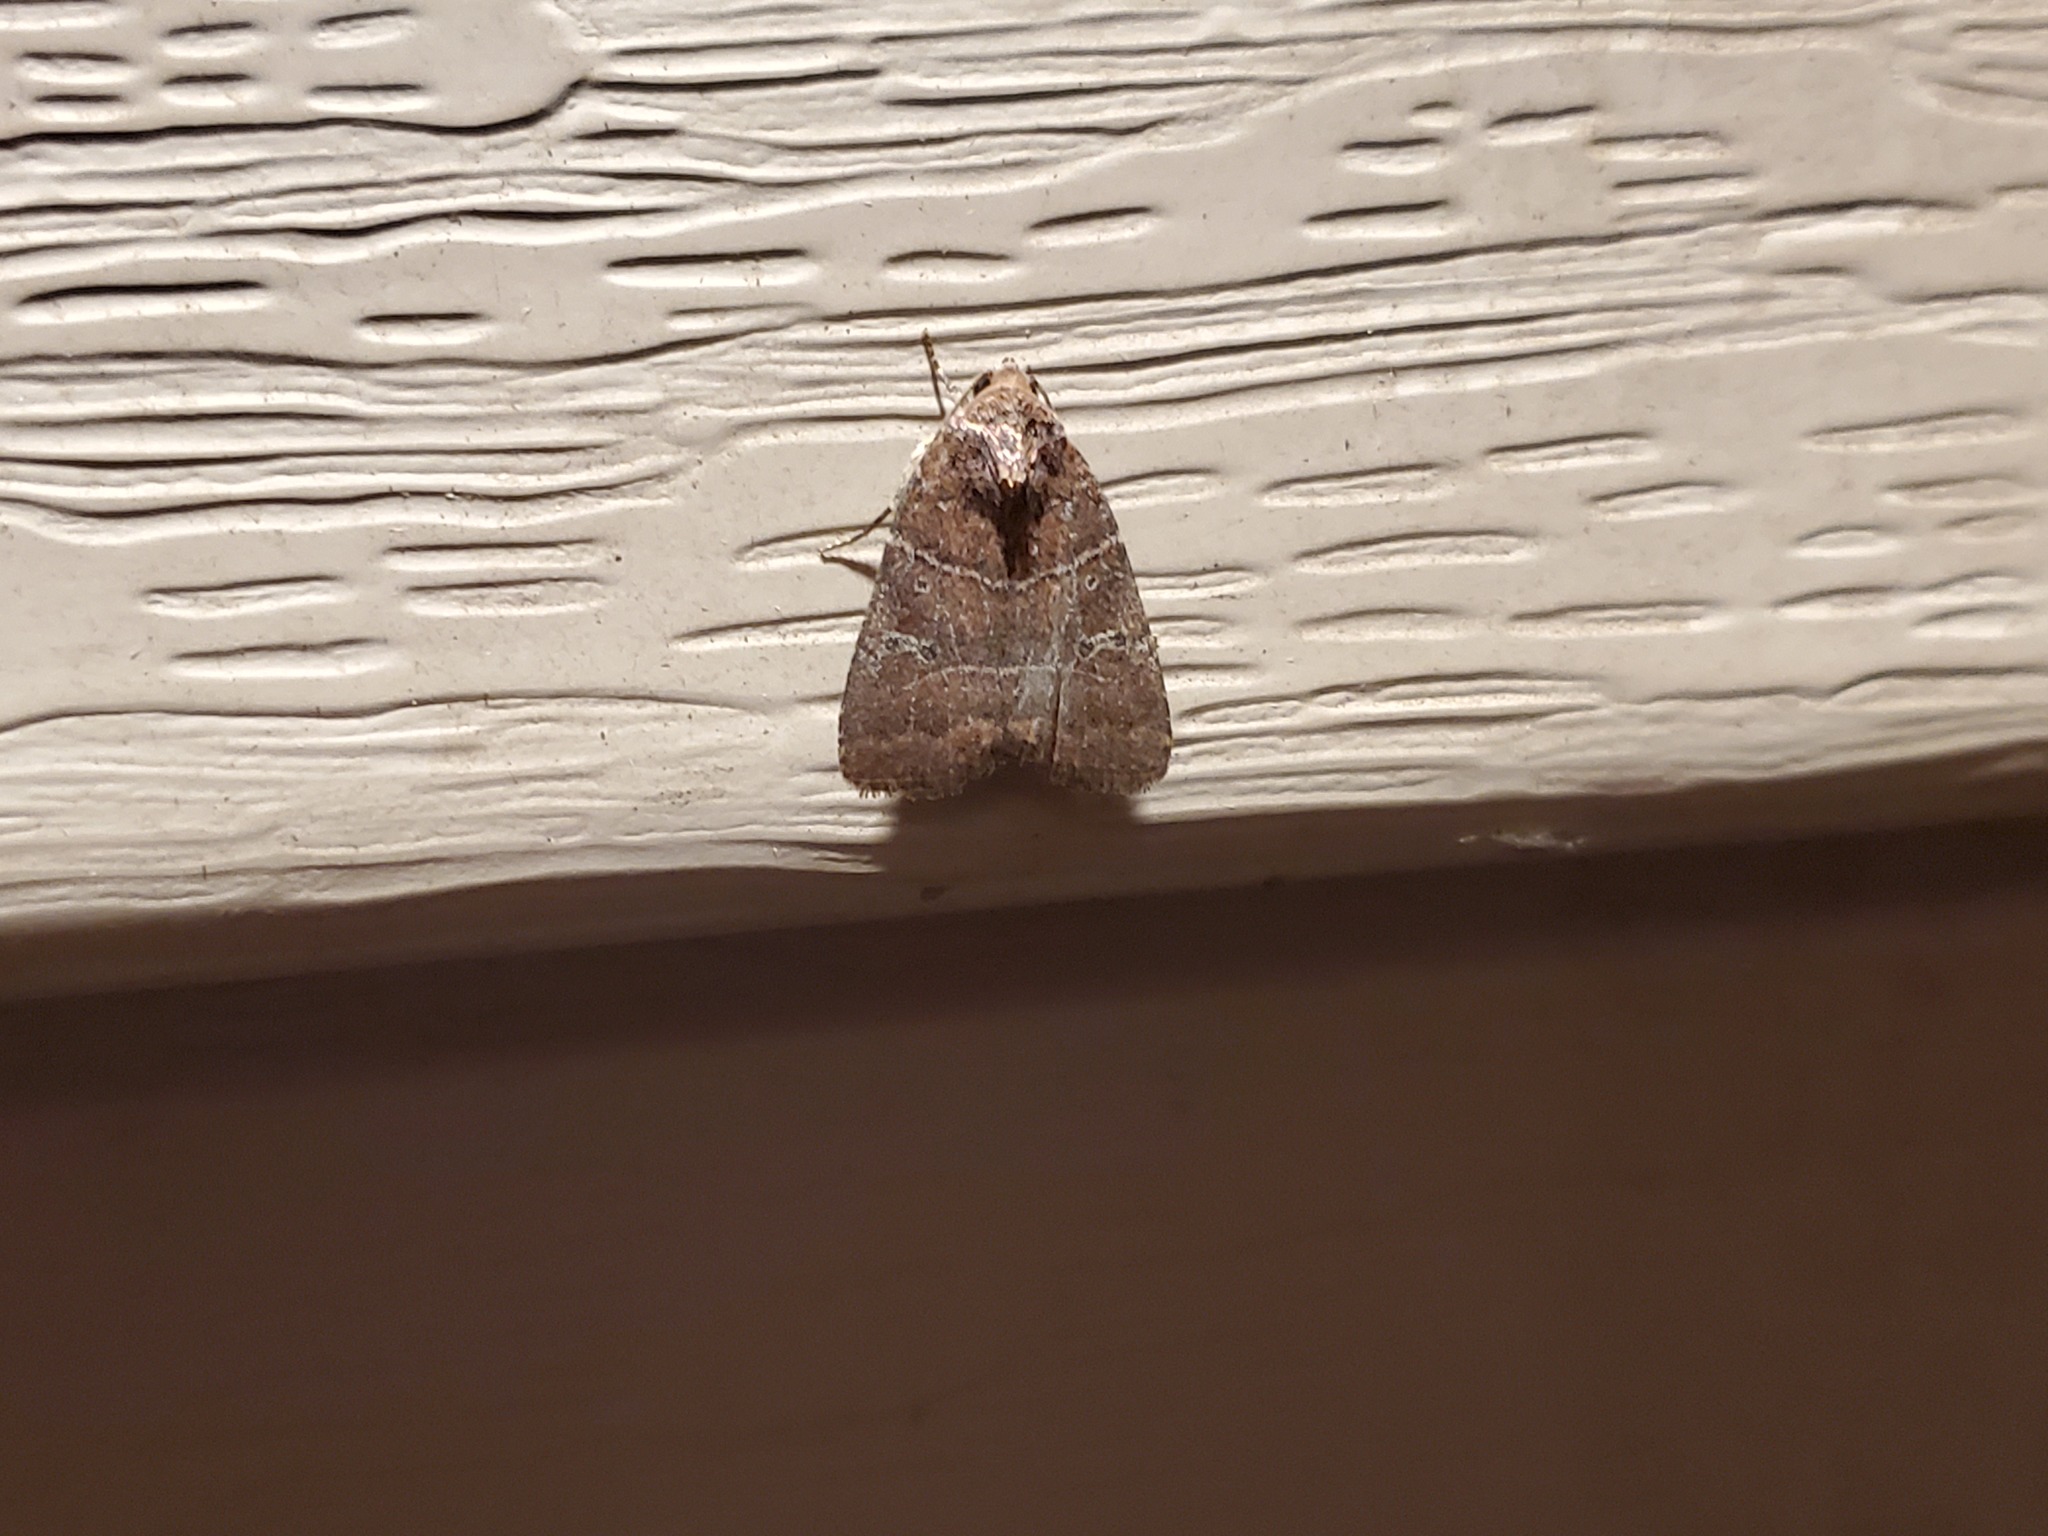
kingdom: Animalia
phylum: Arthropoda
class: Insecta
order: Lepidoptera
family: Noctuidae
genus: Elaphria
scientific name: Elaphria grata
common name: Grateful midget moth
